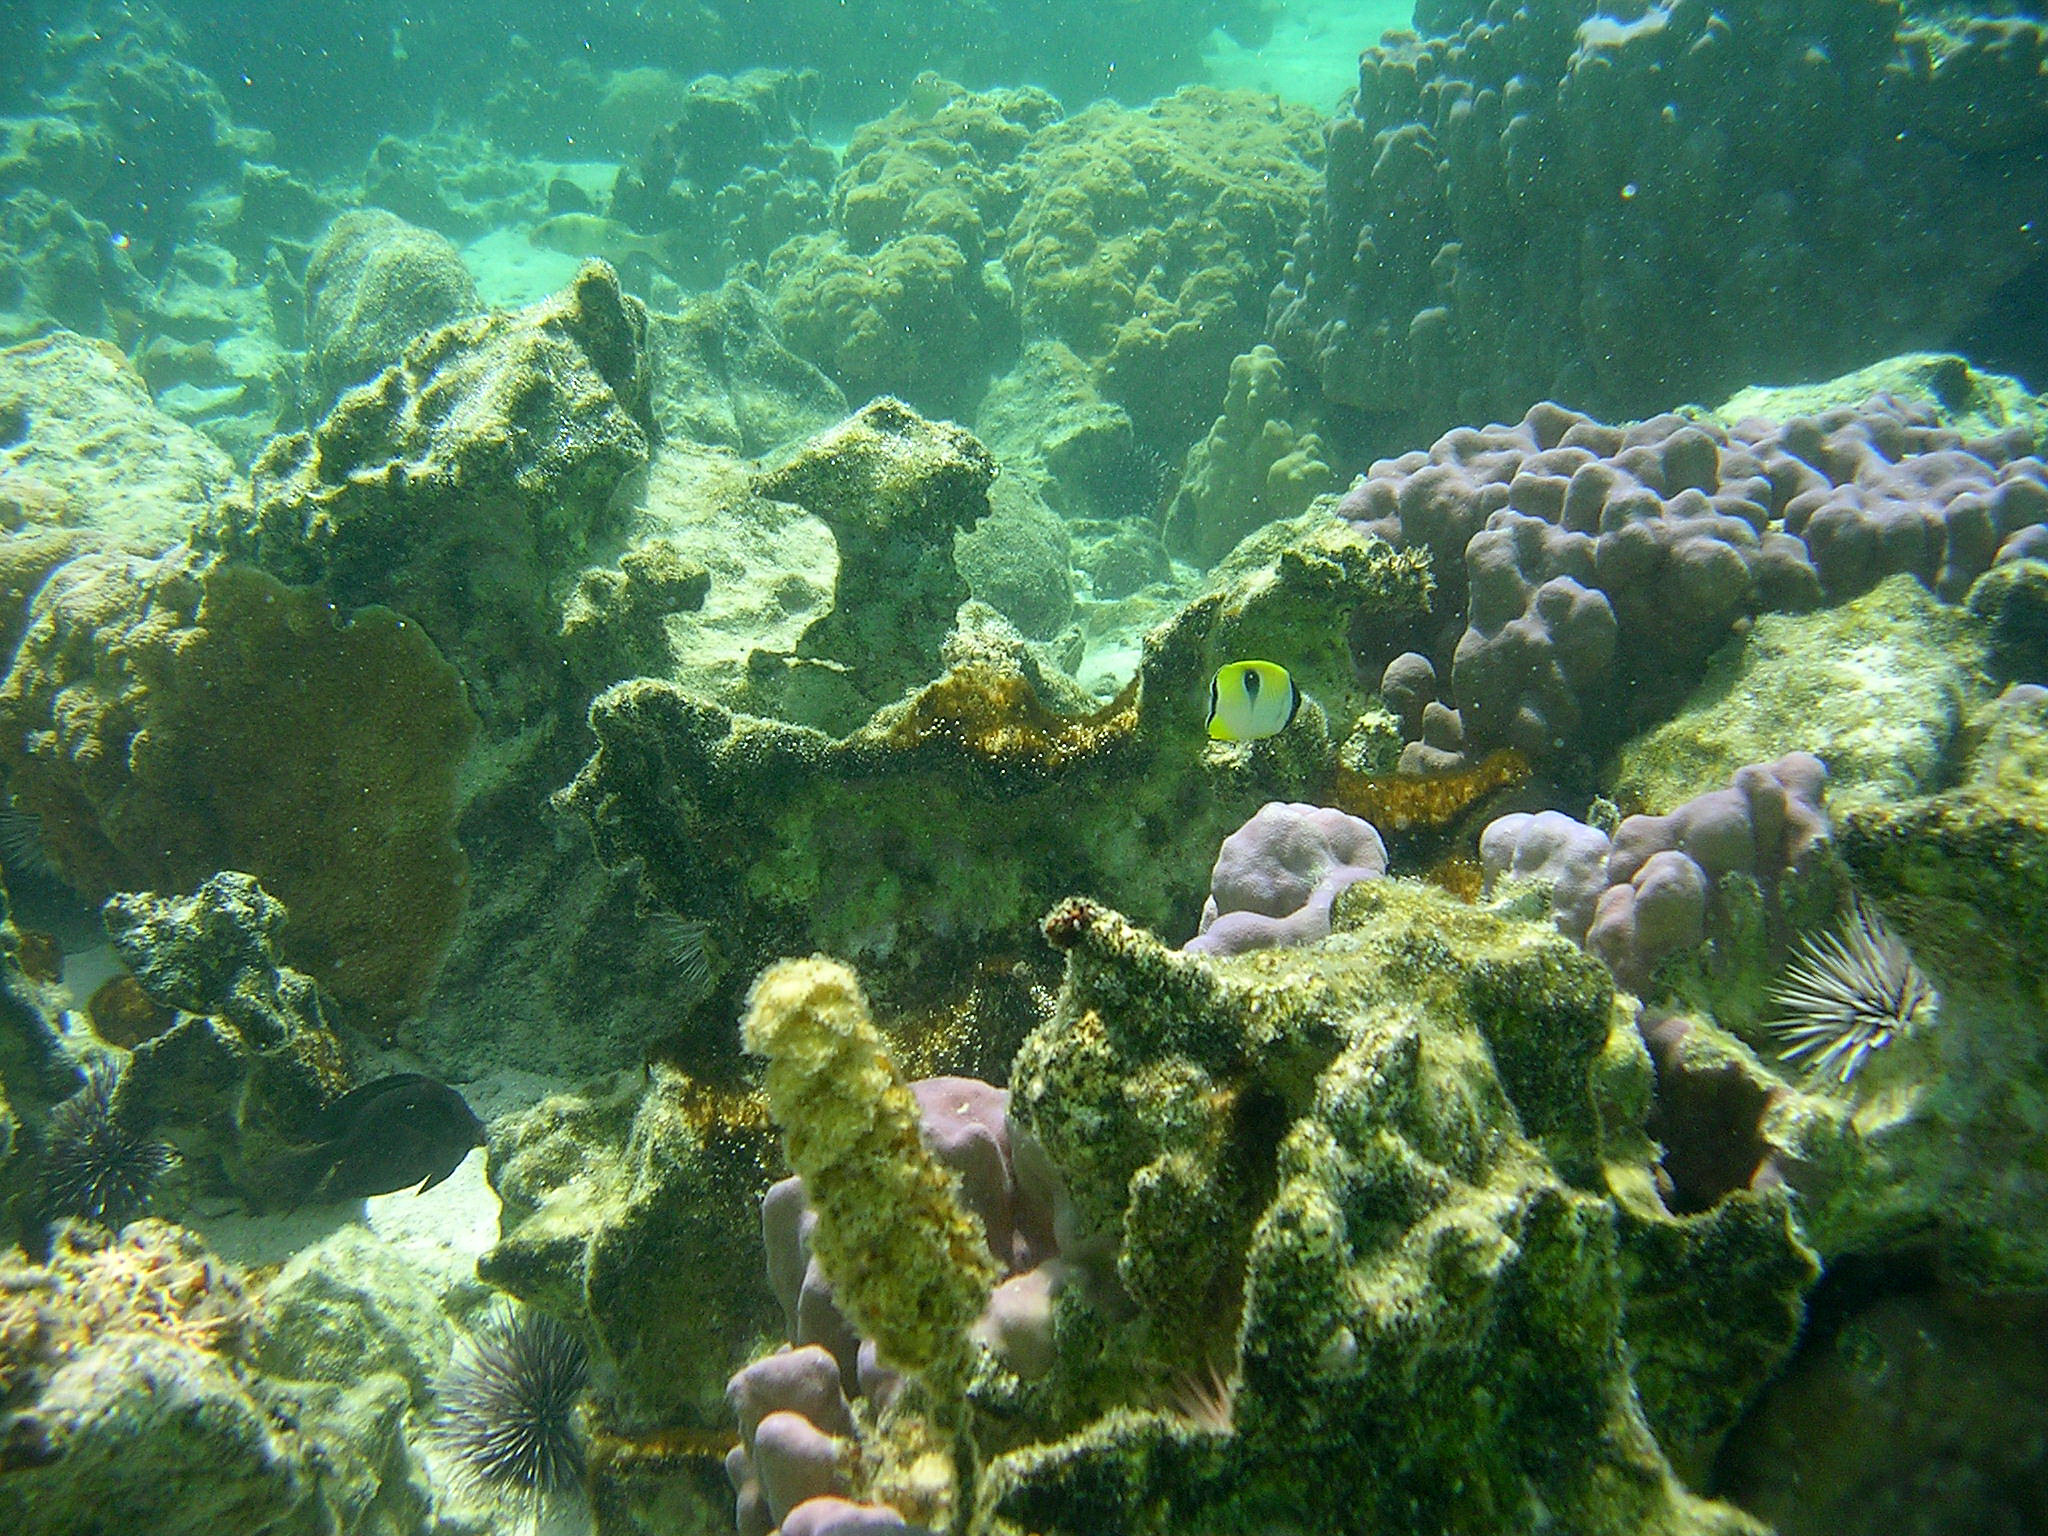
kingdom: Animalia
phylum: Chordata
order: Perciformes
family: Chaetodontidae
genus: Chaetodon
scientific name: Chaetodon unimaculatus
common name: Teardrop butterflyfish
